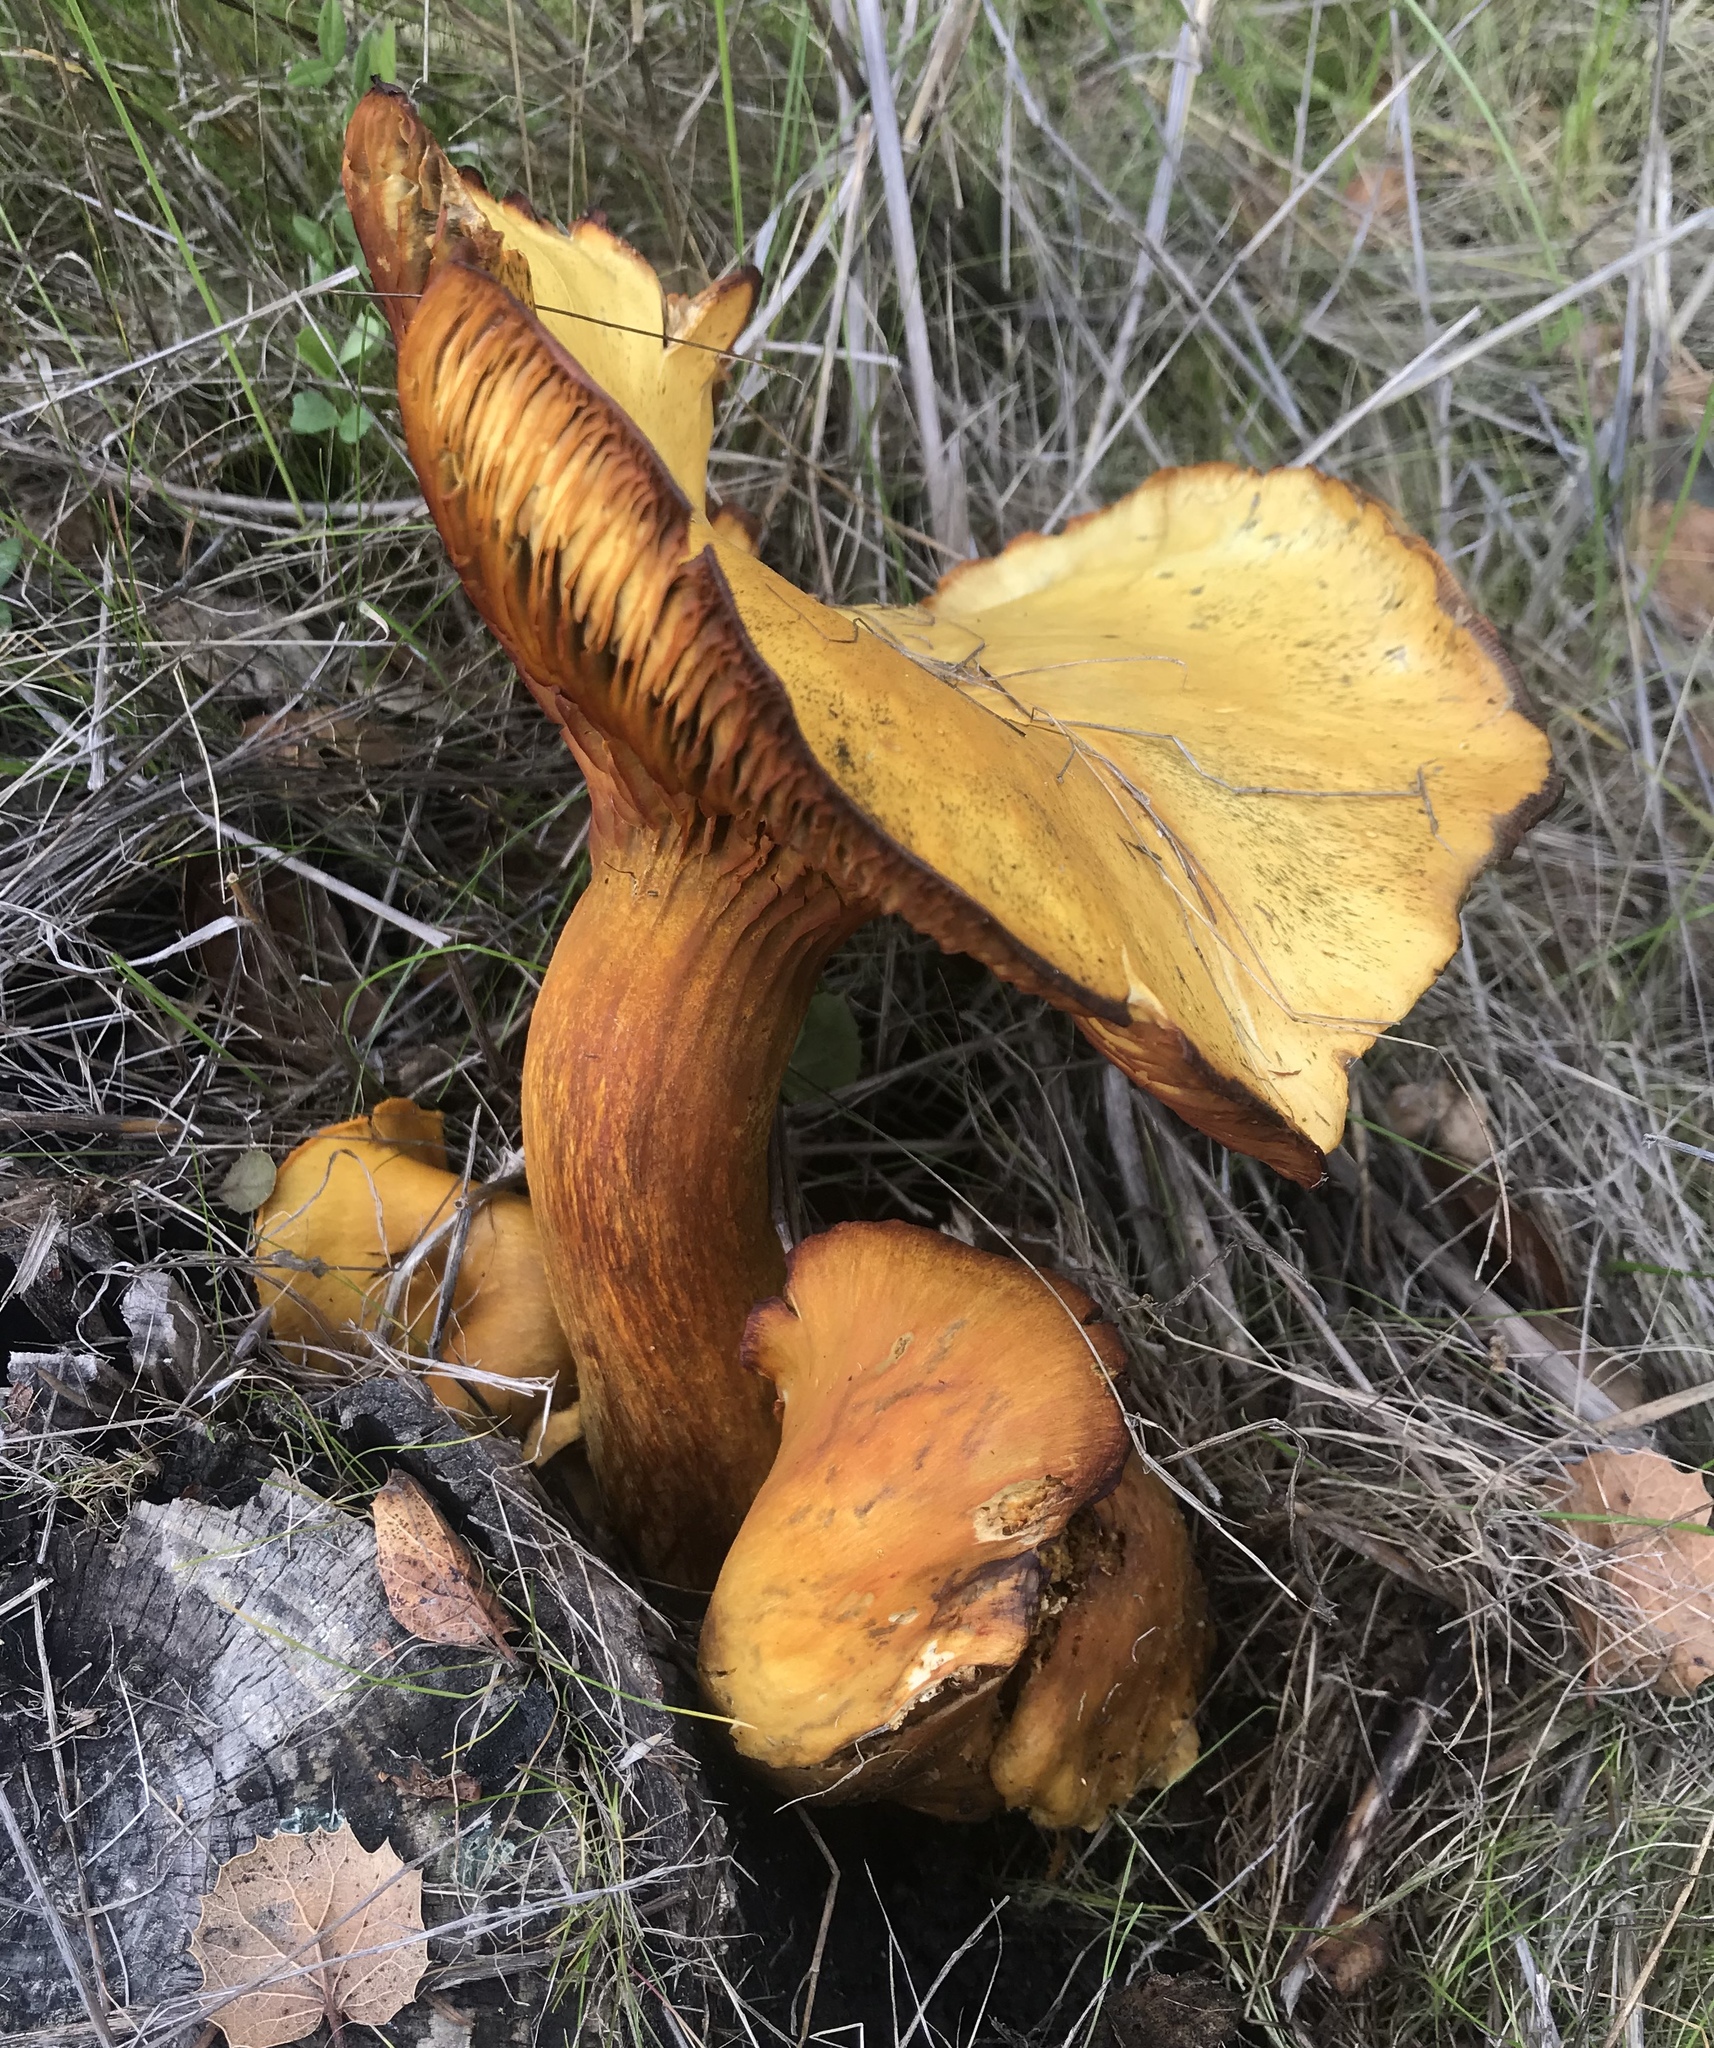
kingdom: Fungi
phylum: Basidiomycota
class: Agaricomycetes
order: Agaricales
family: Omphalotaceae
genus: Omphalotus
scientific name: Omphalotus olivascens
